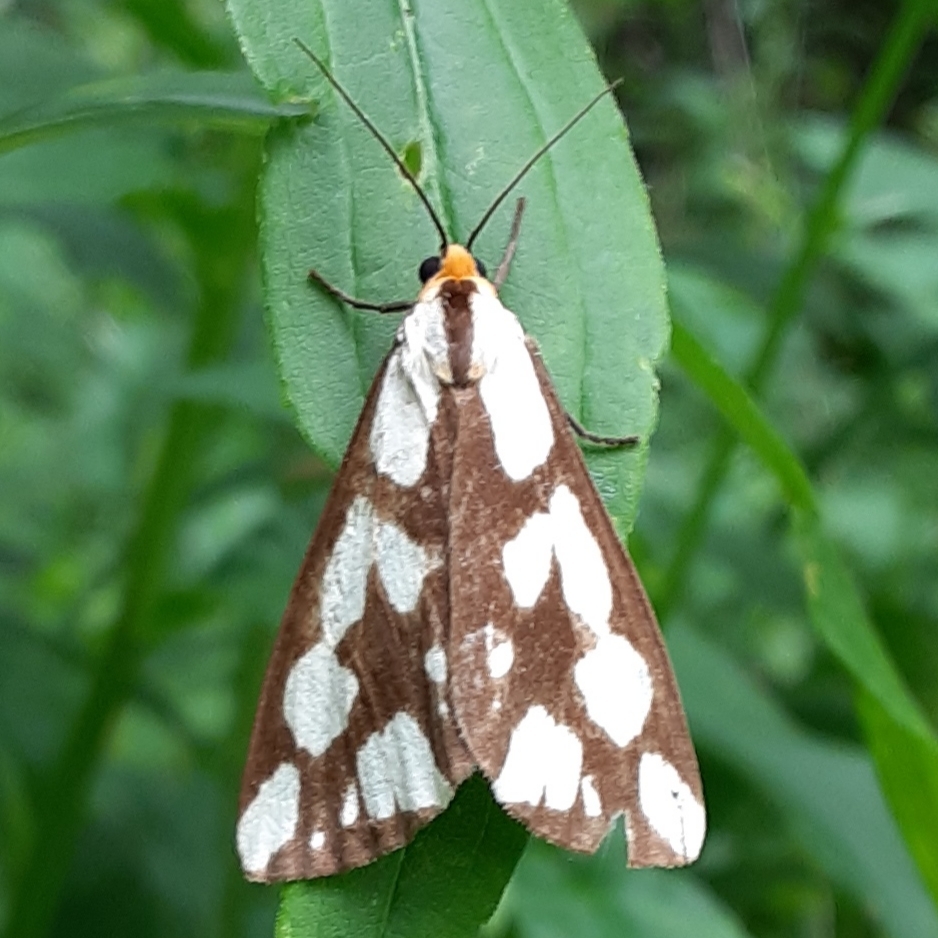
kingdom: Animalia
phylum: Arthropoda
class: Insecta
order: Lepidoptera
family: Erebidae
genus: Haploa
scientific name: Haploa confusa
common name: Confused haploa moth
